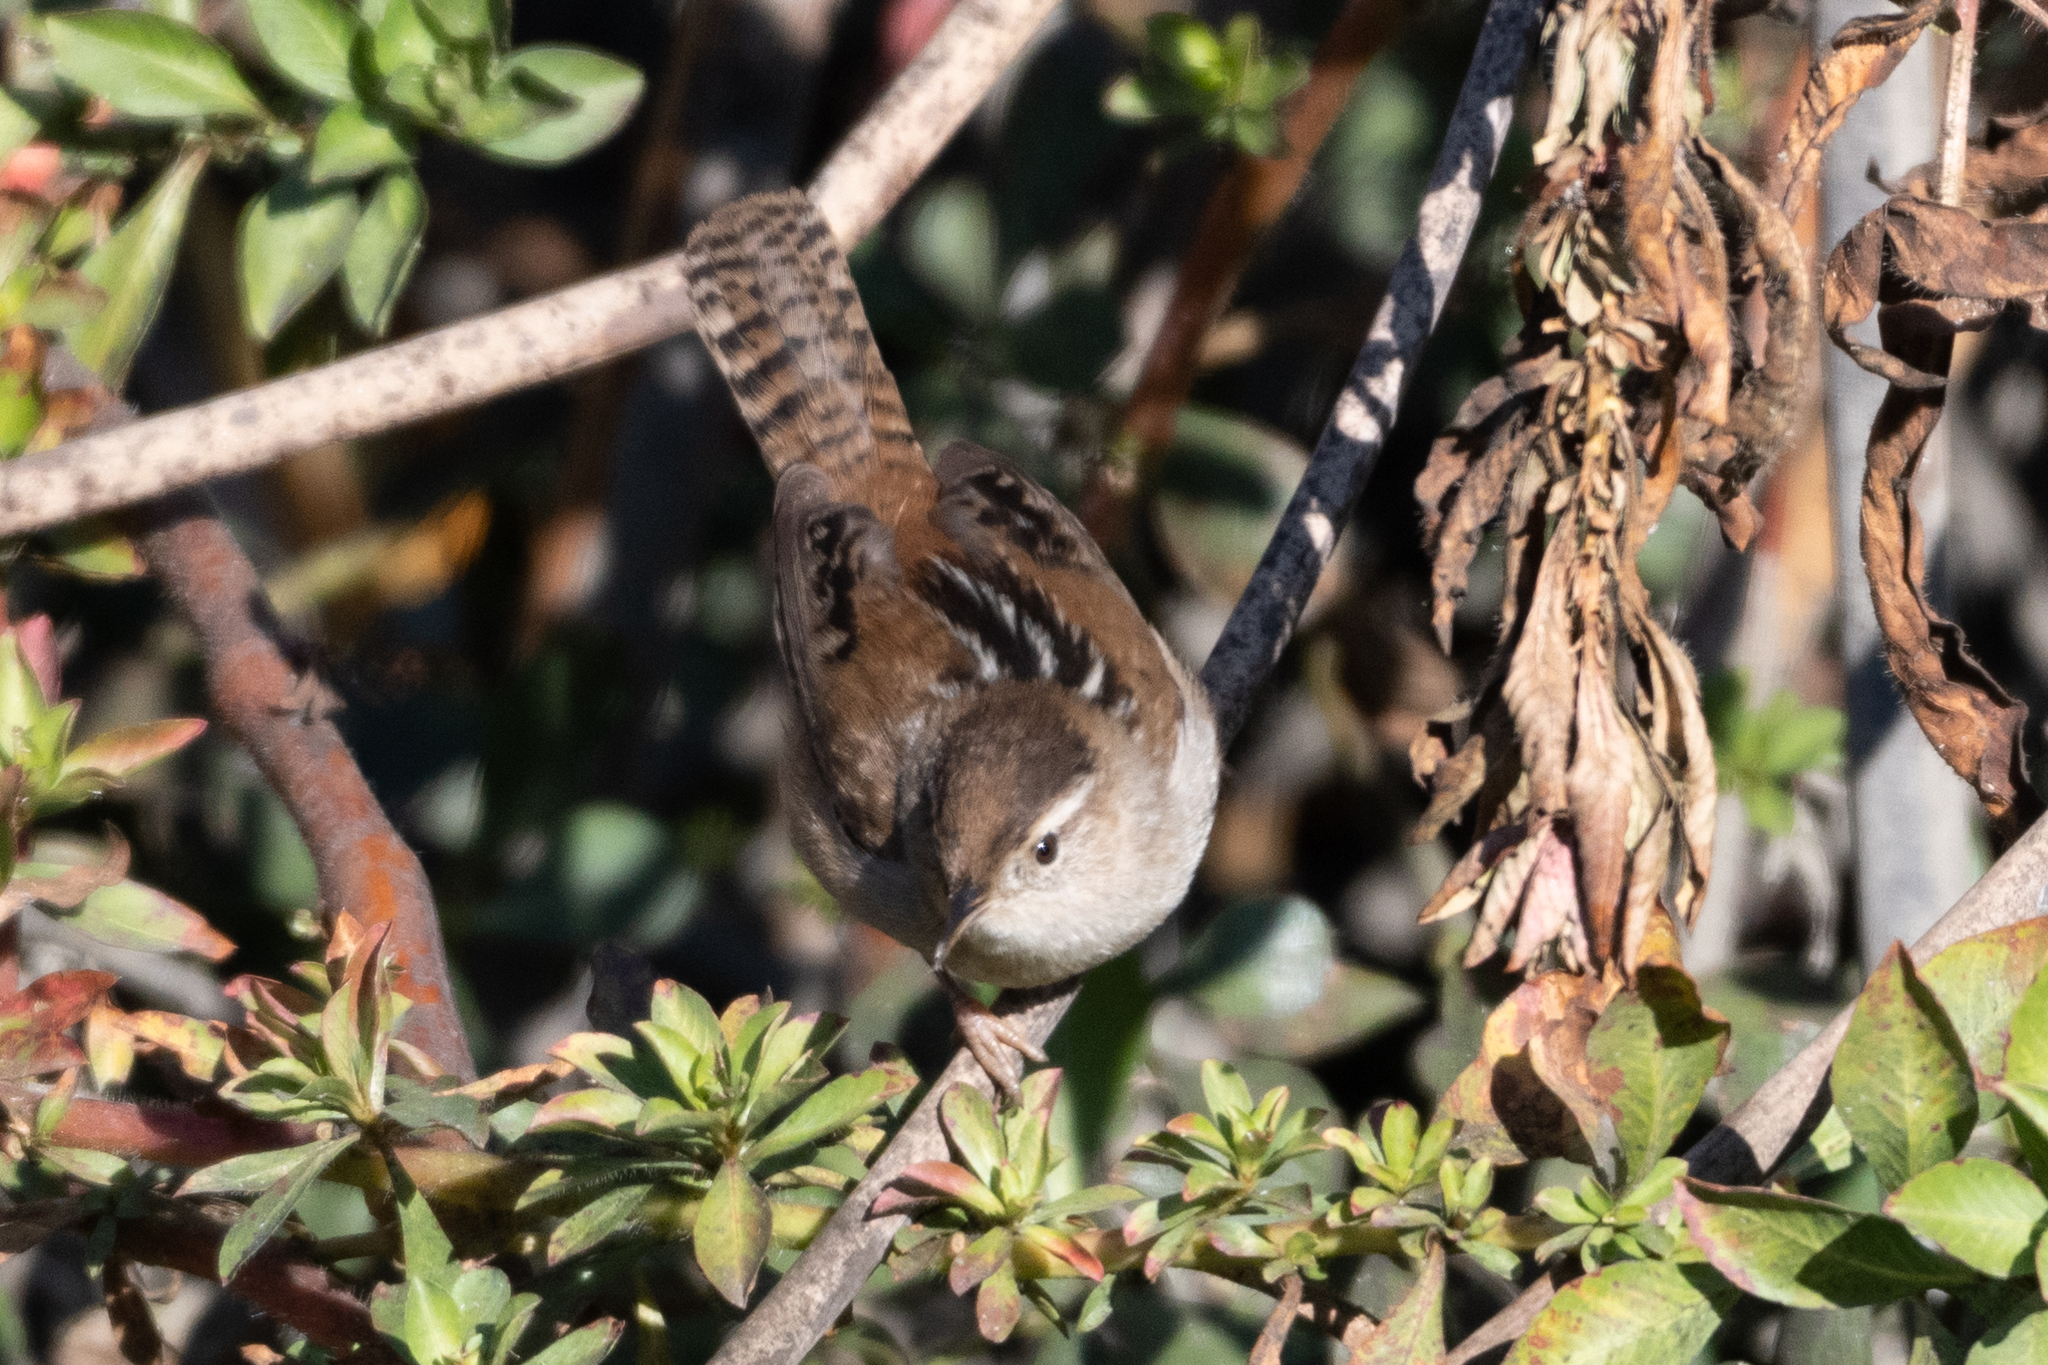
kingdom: Animalia
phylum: Chordata
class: Aves
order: Passeriformes
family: Troglodytidae
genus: Cistothorus
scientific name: Cistothorus palustris
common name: Marsh wren
